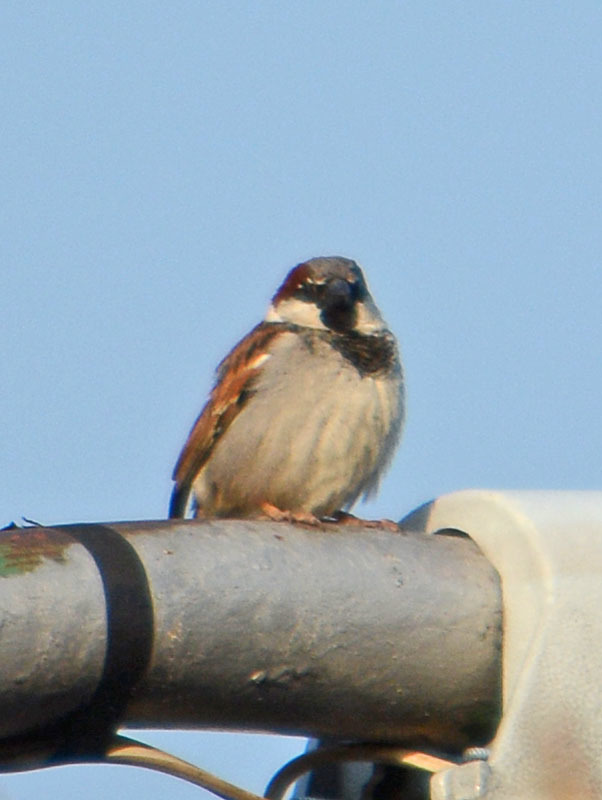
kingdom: Animalia
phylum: Chordata
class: Aves
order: Passeriformes
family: Passeridae
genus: Passer
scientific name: Passer domesticus
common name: House sparrow
